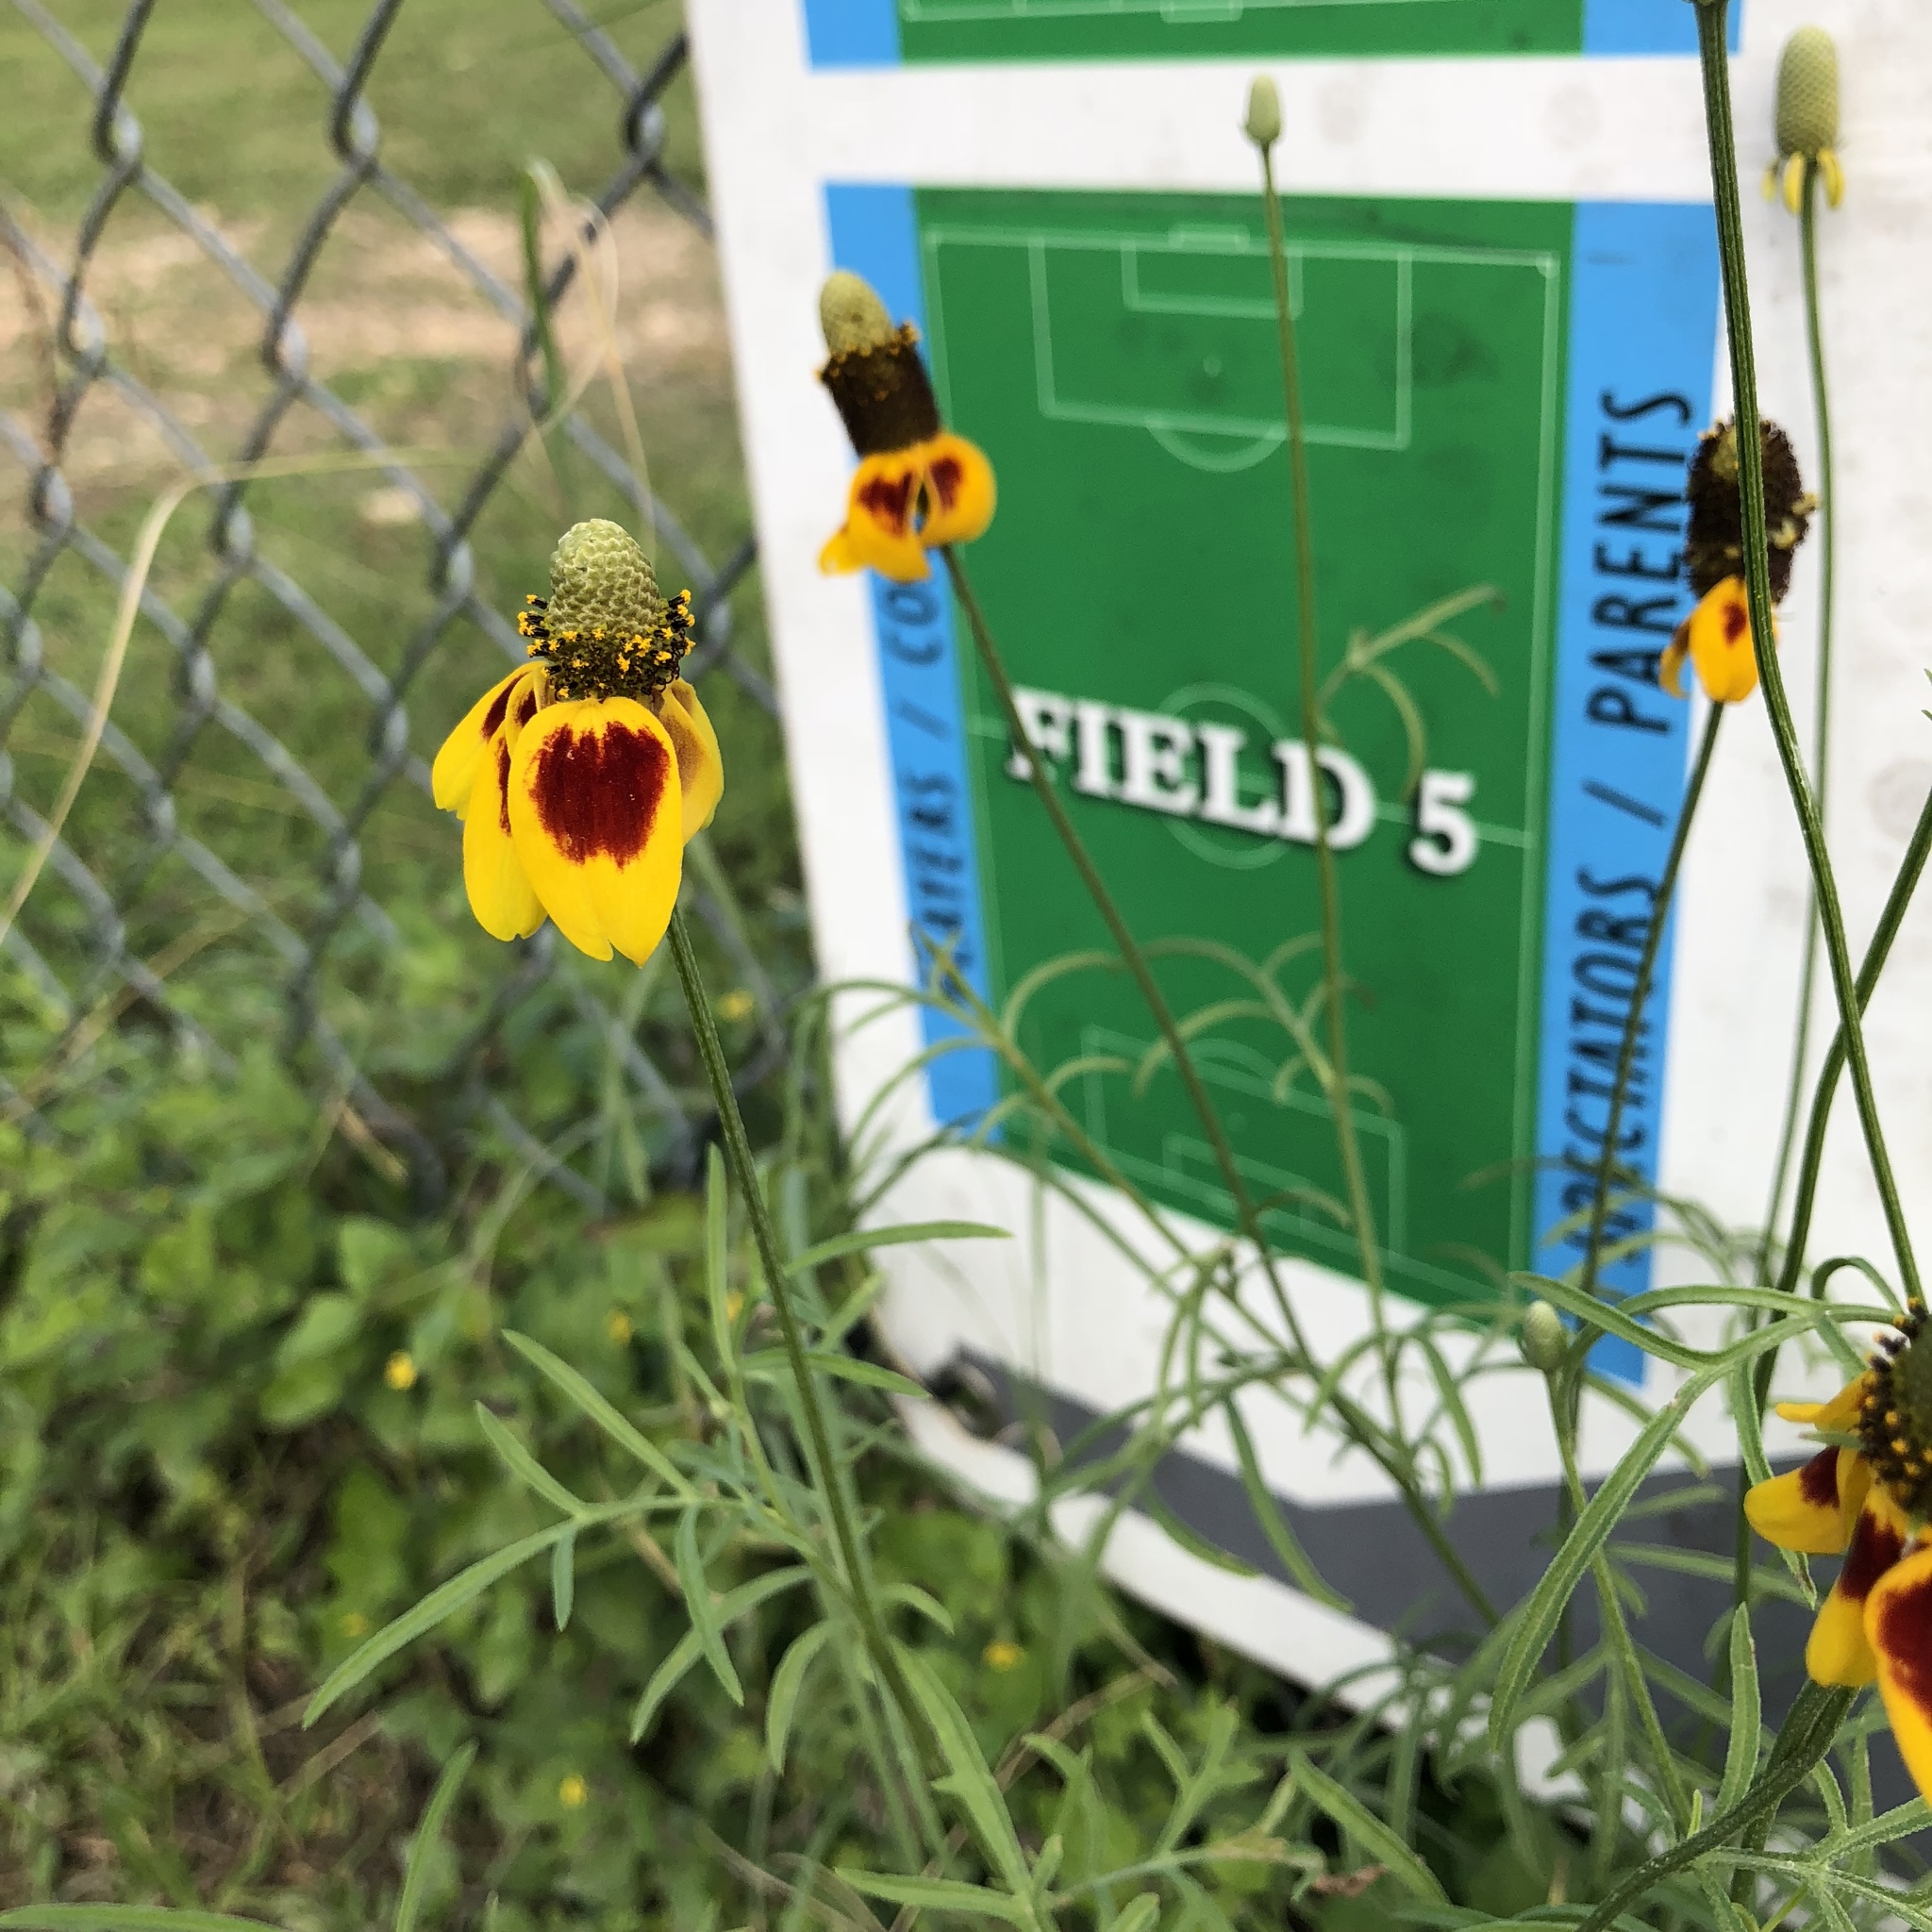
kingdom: Plantae
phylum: Tracheophyta
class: Magnoliopsida
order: Asterales
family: Asteraceae
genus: Ratibida
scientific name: Ratibida columnifera
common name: Prairie coneflower
